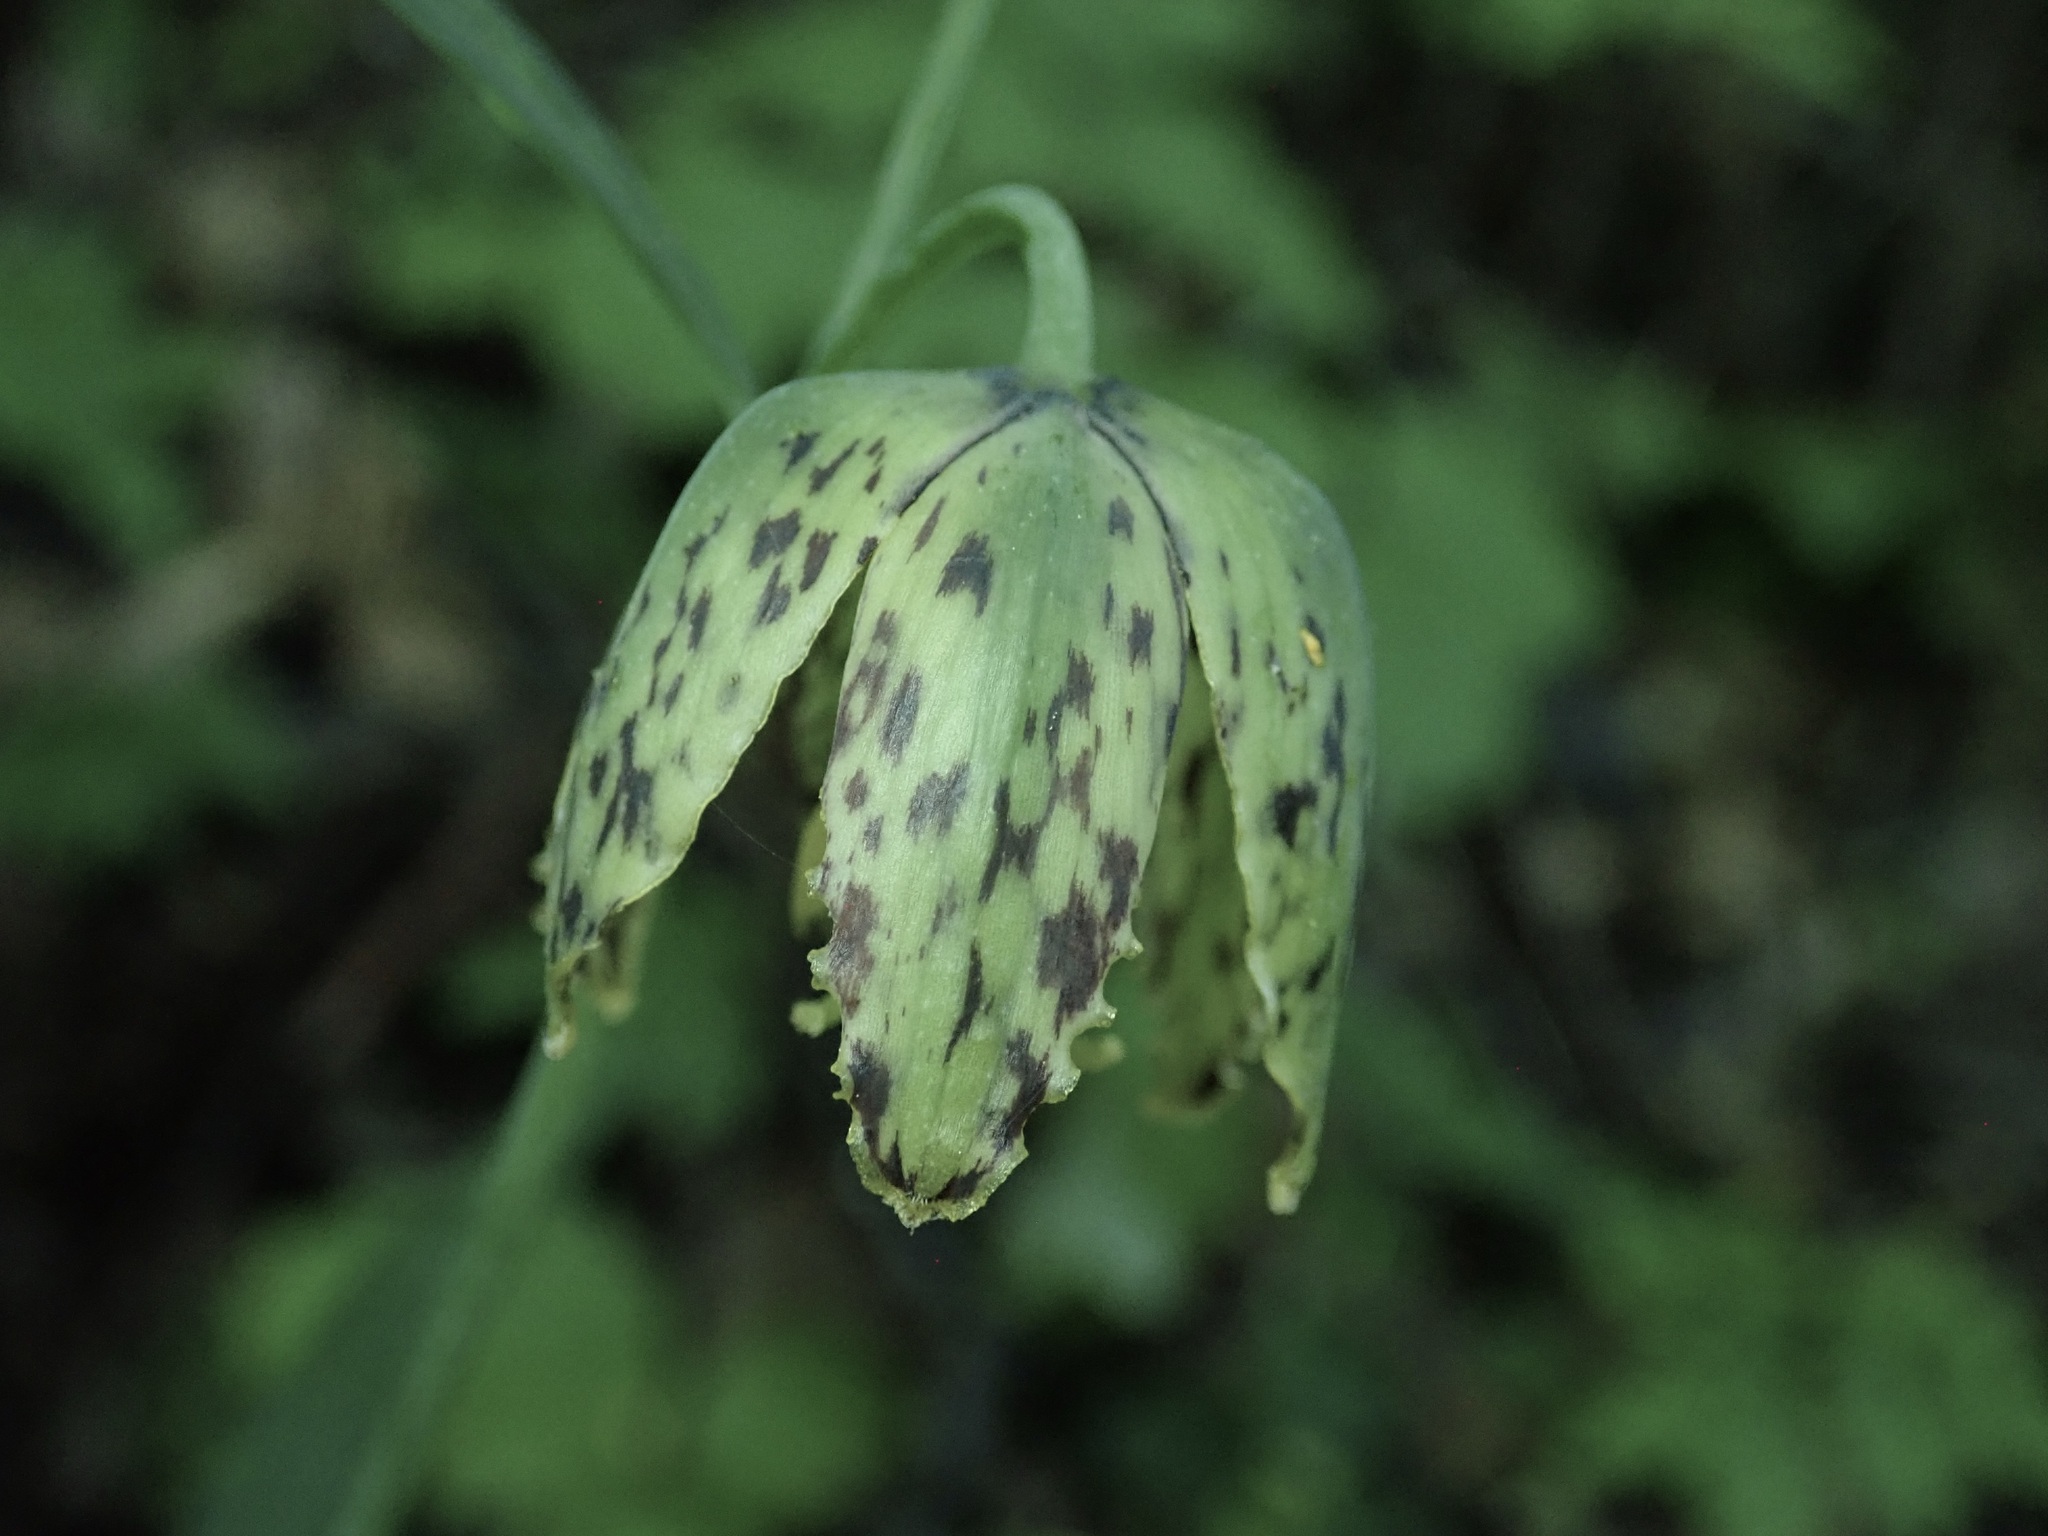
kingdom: Plantae
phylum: Tracheophyta
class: Liliopsida
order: Liliales
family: Liliaceae
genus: Fritillaria
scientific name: Fritillaria affinis
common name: Ojai fritillary
